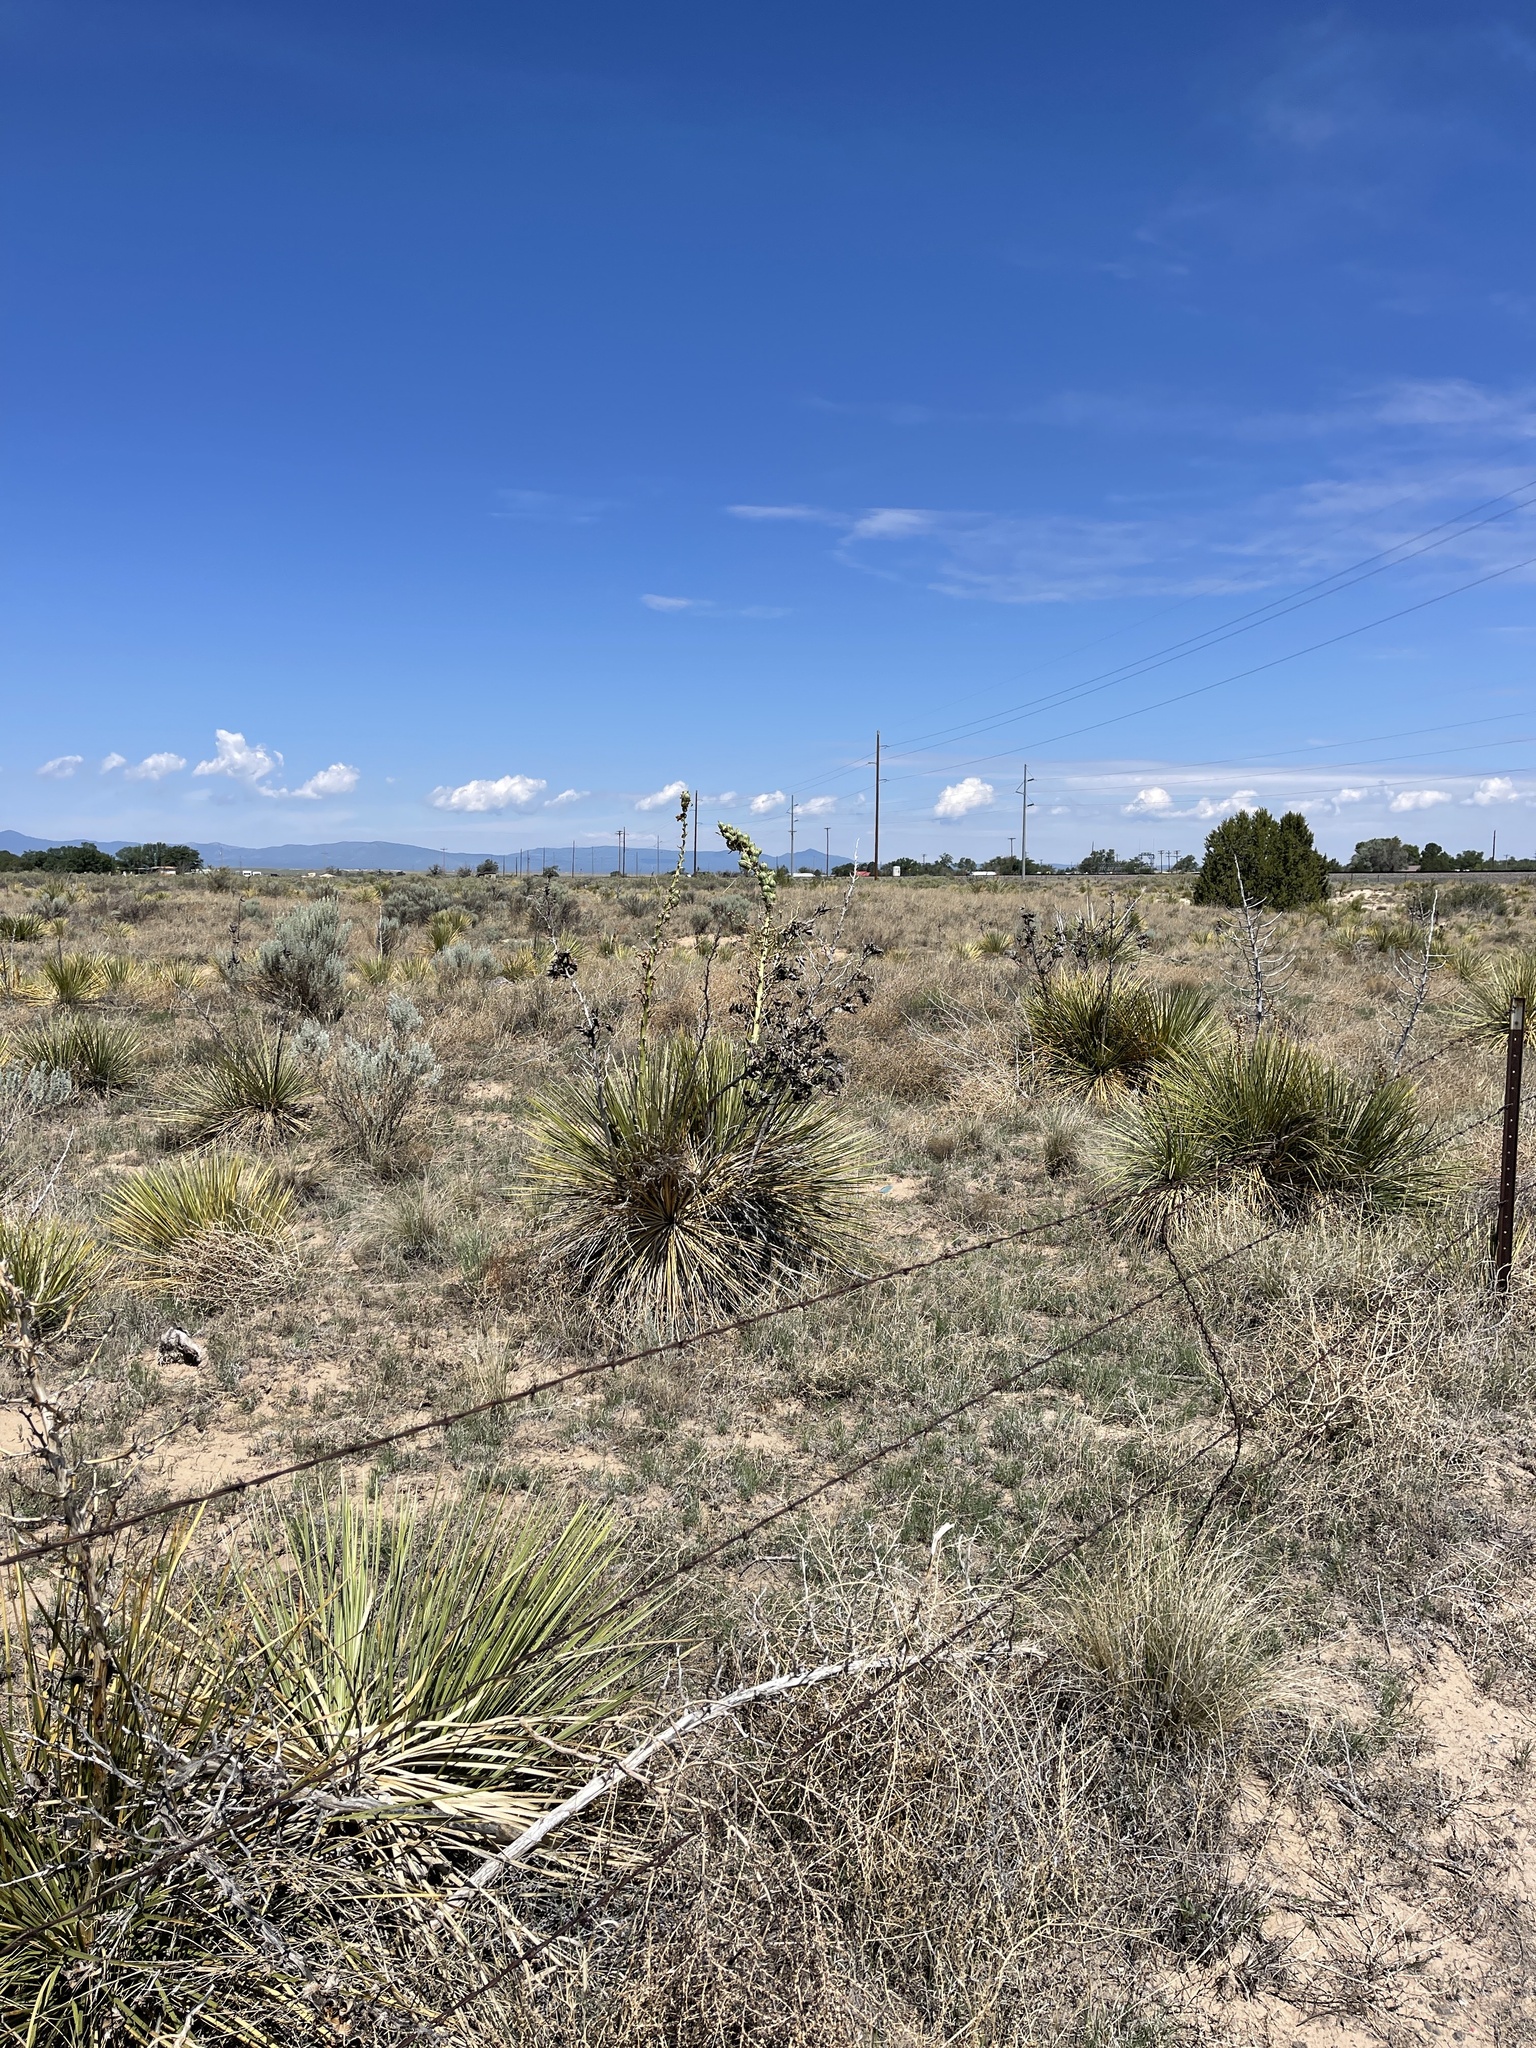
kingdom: Plantae
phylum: Tracheophyta
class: Liliopsida
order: Asparagales
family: Asparagaceae
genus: Yucca
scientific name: Yucca glauca
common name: Great plains yucca
